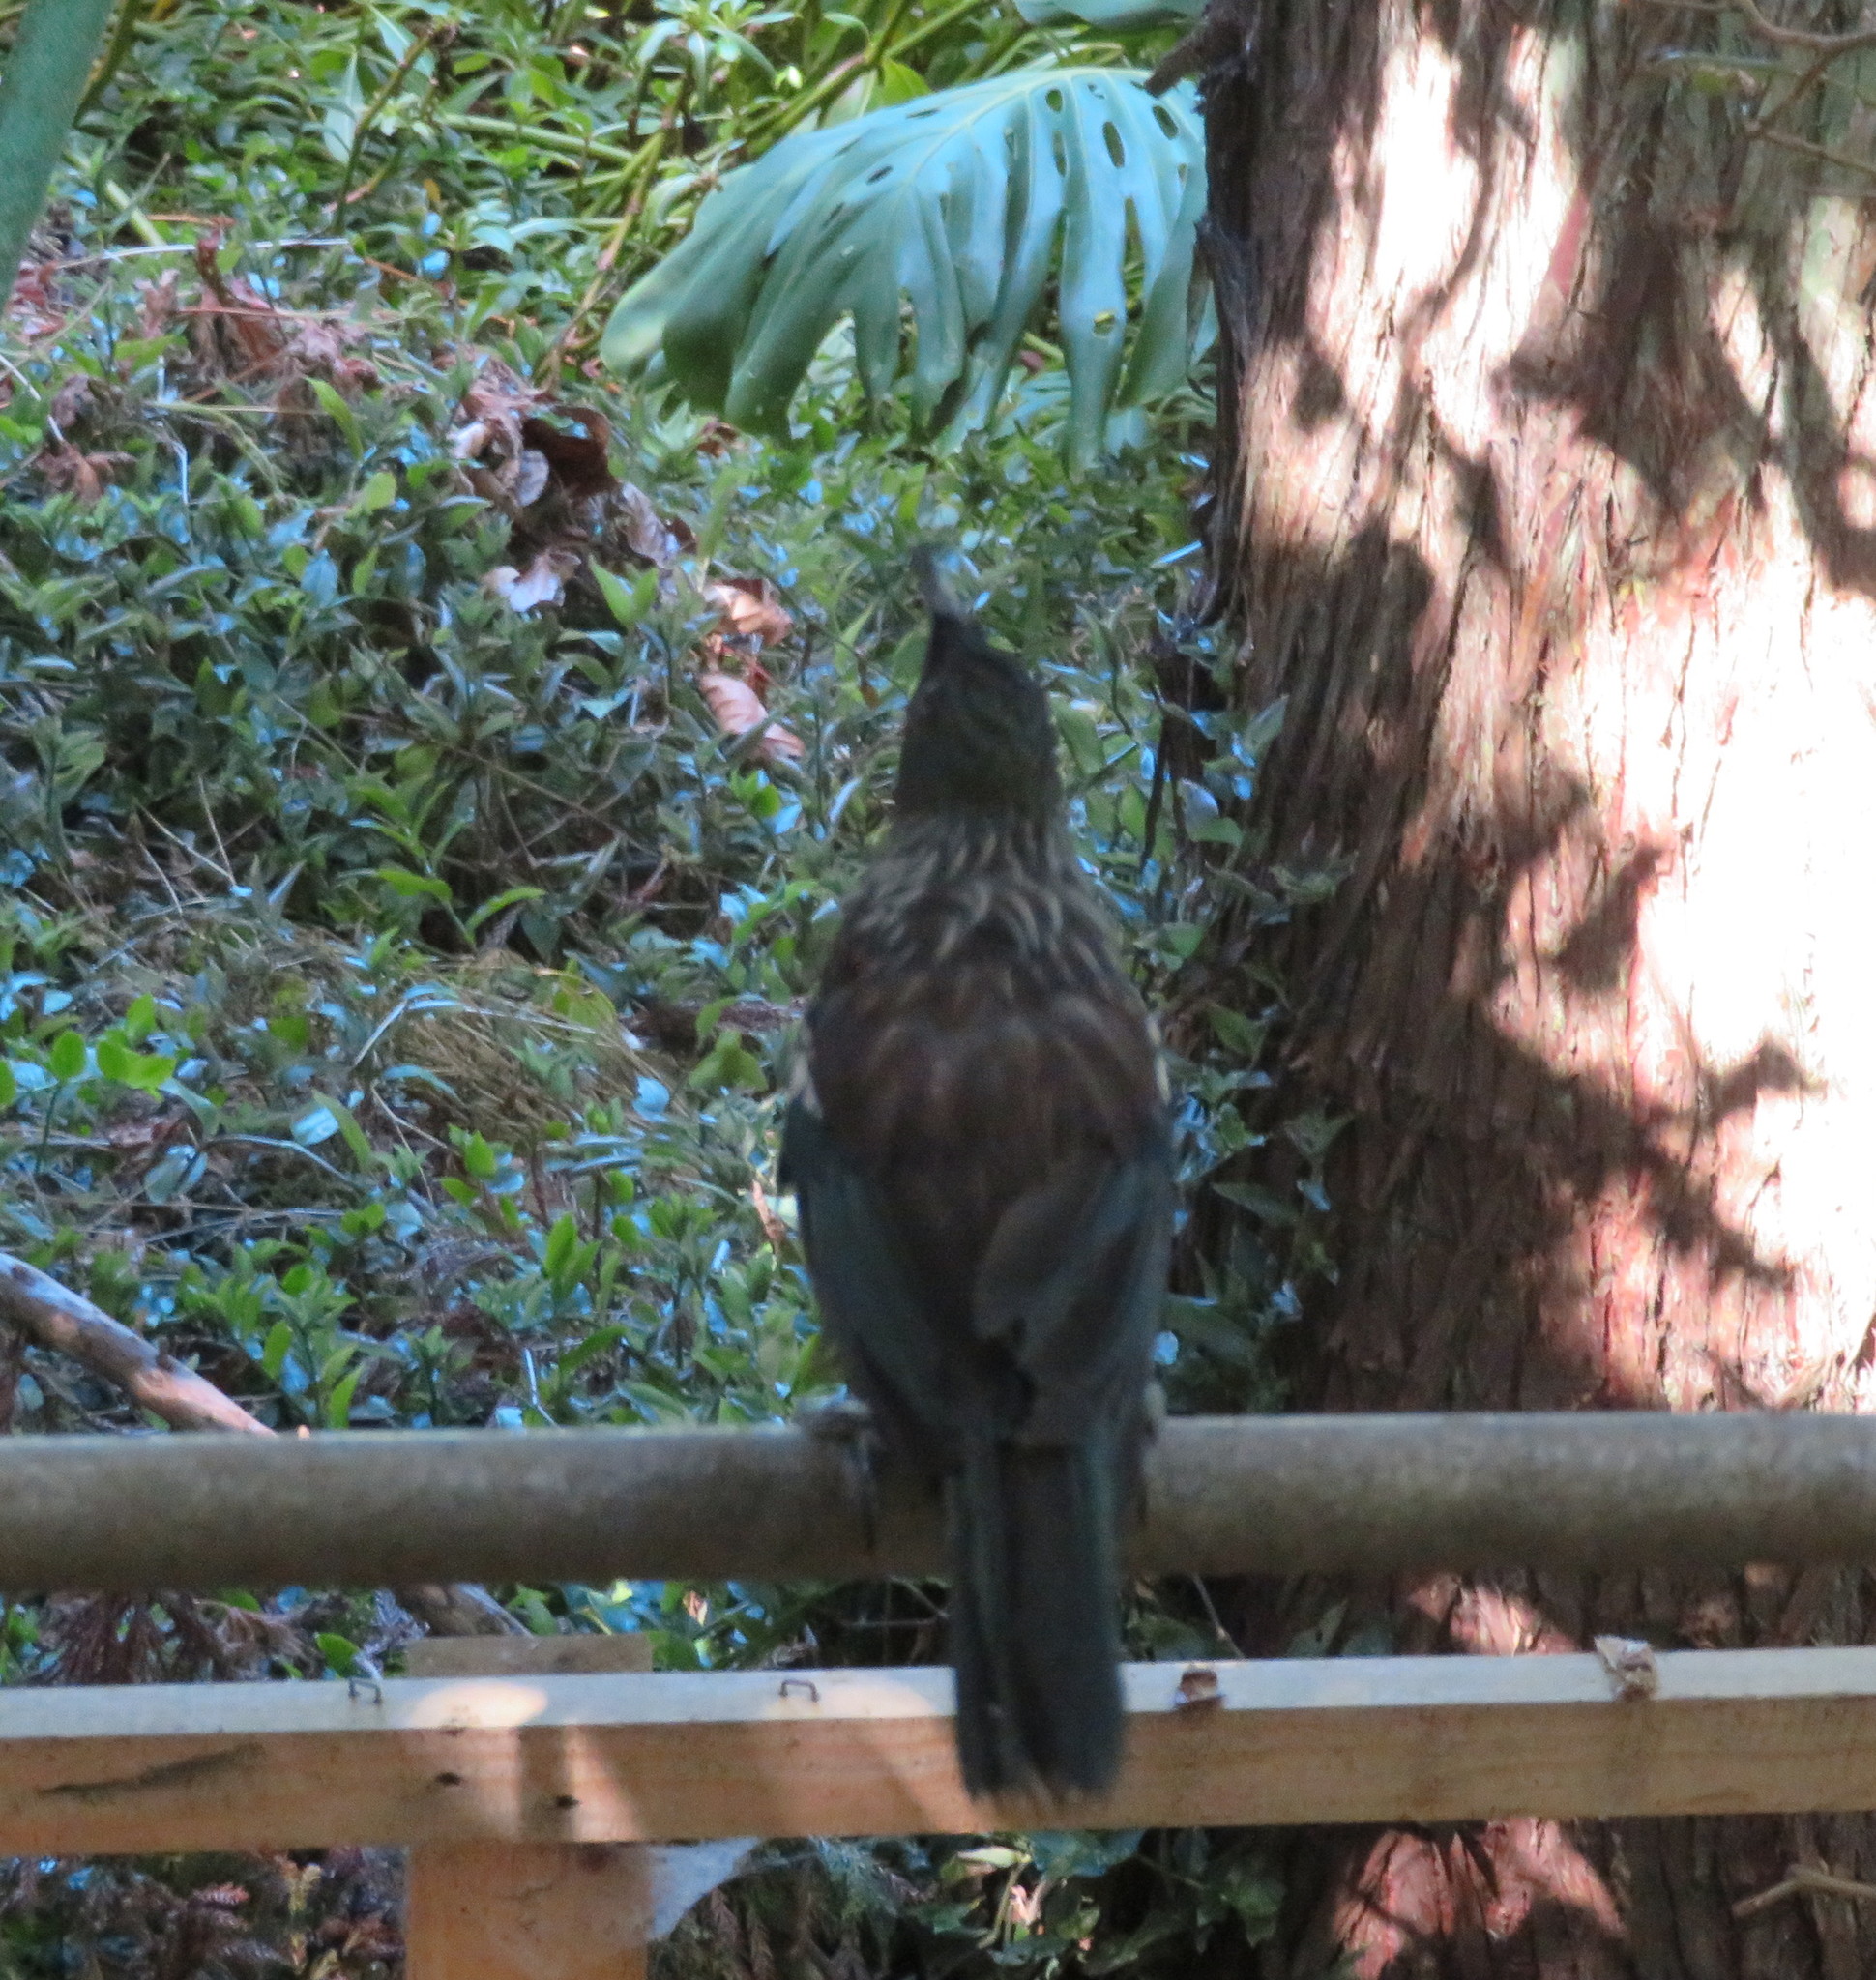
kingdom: Animalia
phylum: Chordata
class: Aves
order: Passeriformes
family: Meliphagidae
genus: Prosthemadera
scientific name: Prosthemadera novaeseelandiae
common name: Tui
